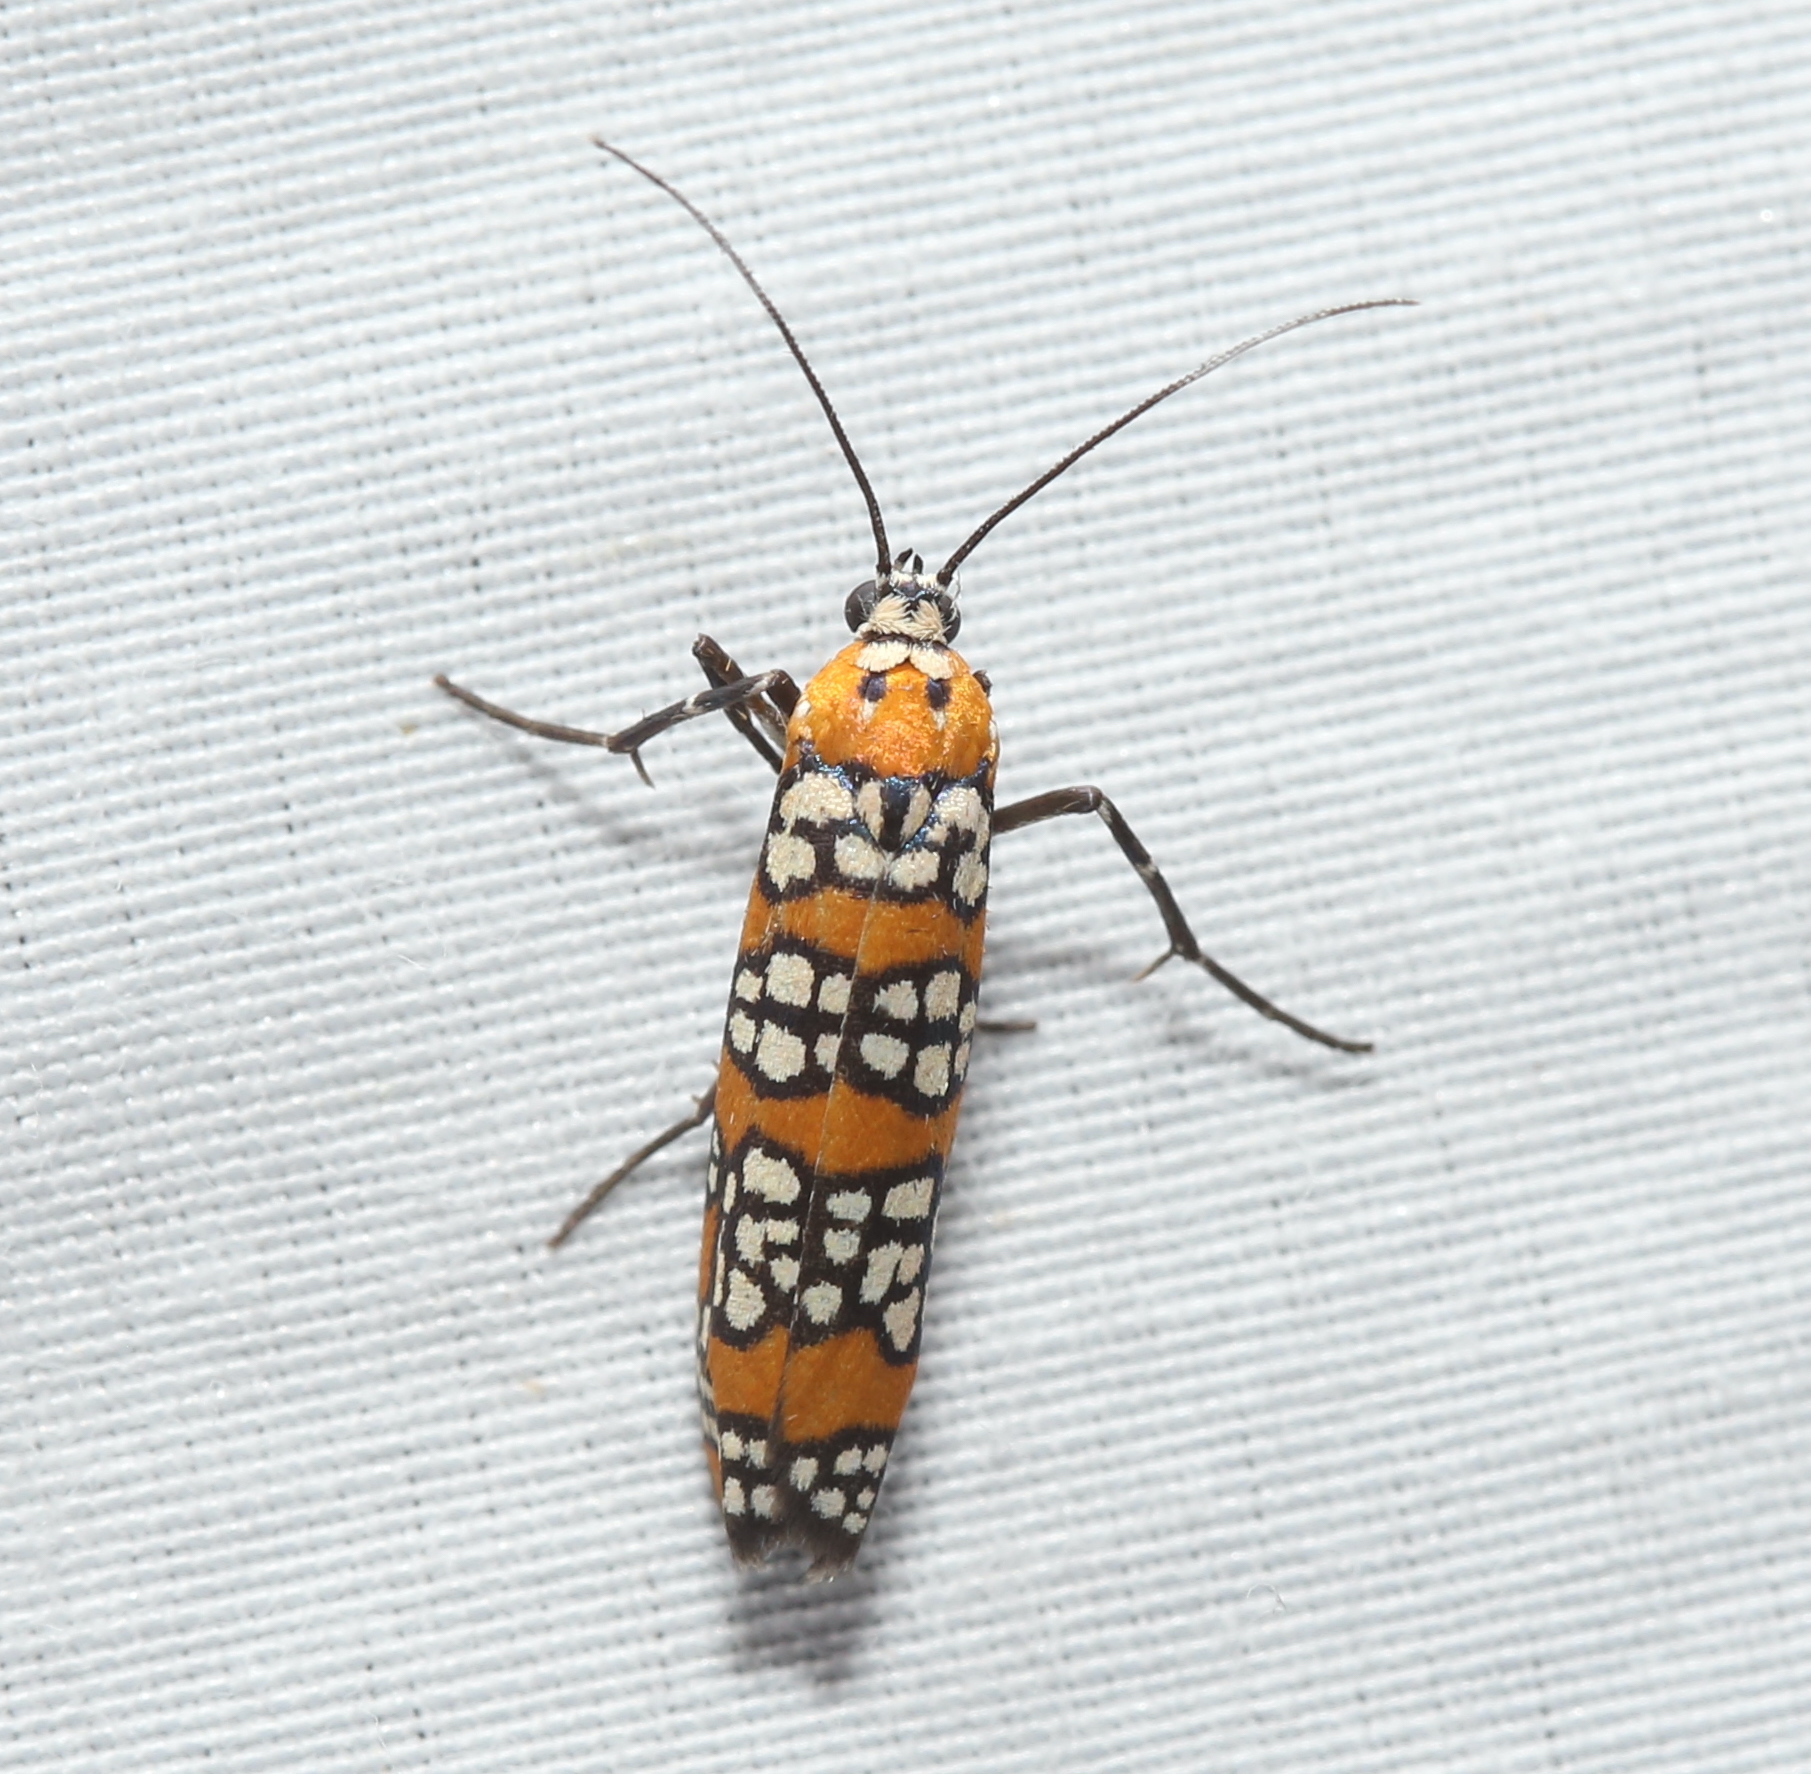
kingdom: Animalia
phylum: Arthropoda
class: Insecta
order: Lepidoptera
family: Attevidae
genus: Atteva
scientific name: Atteva punctella
